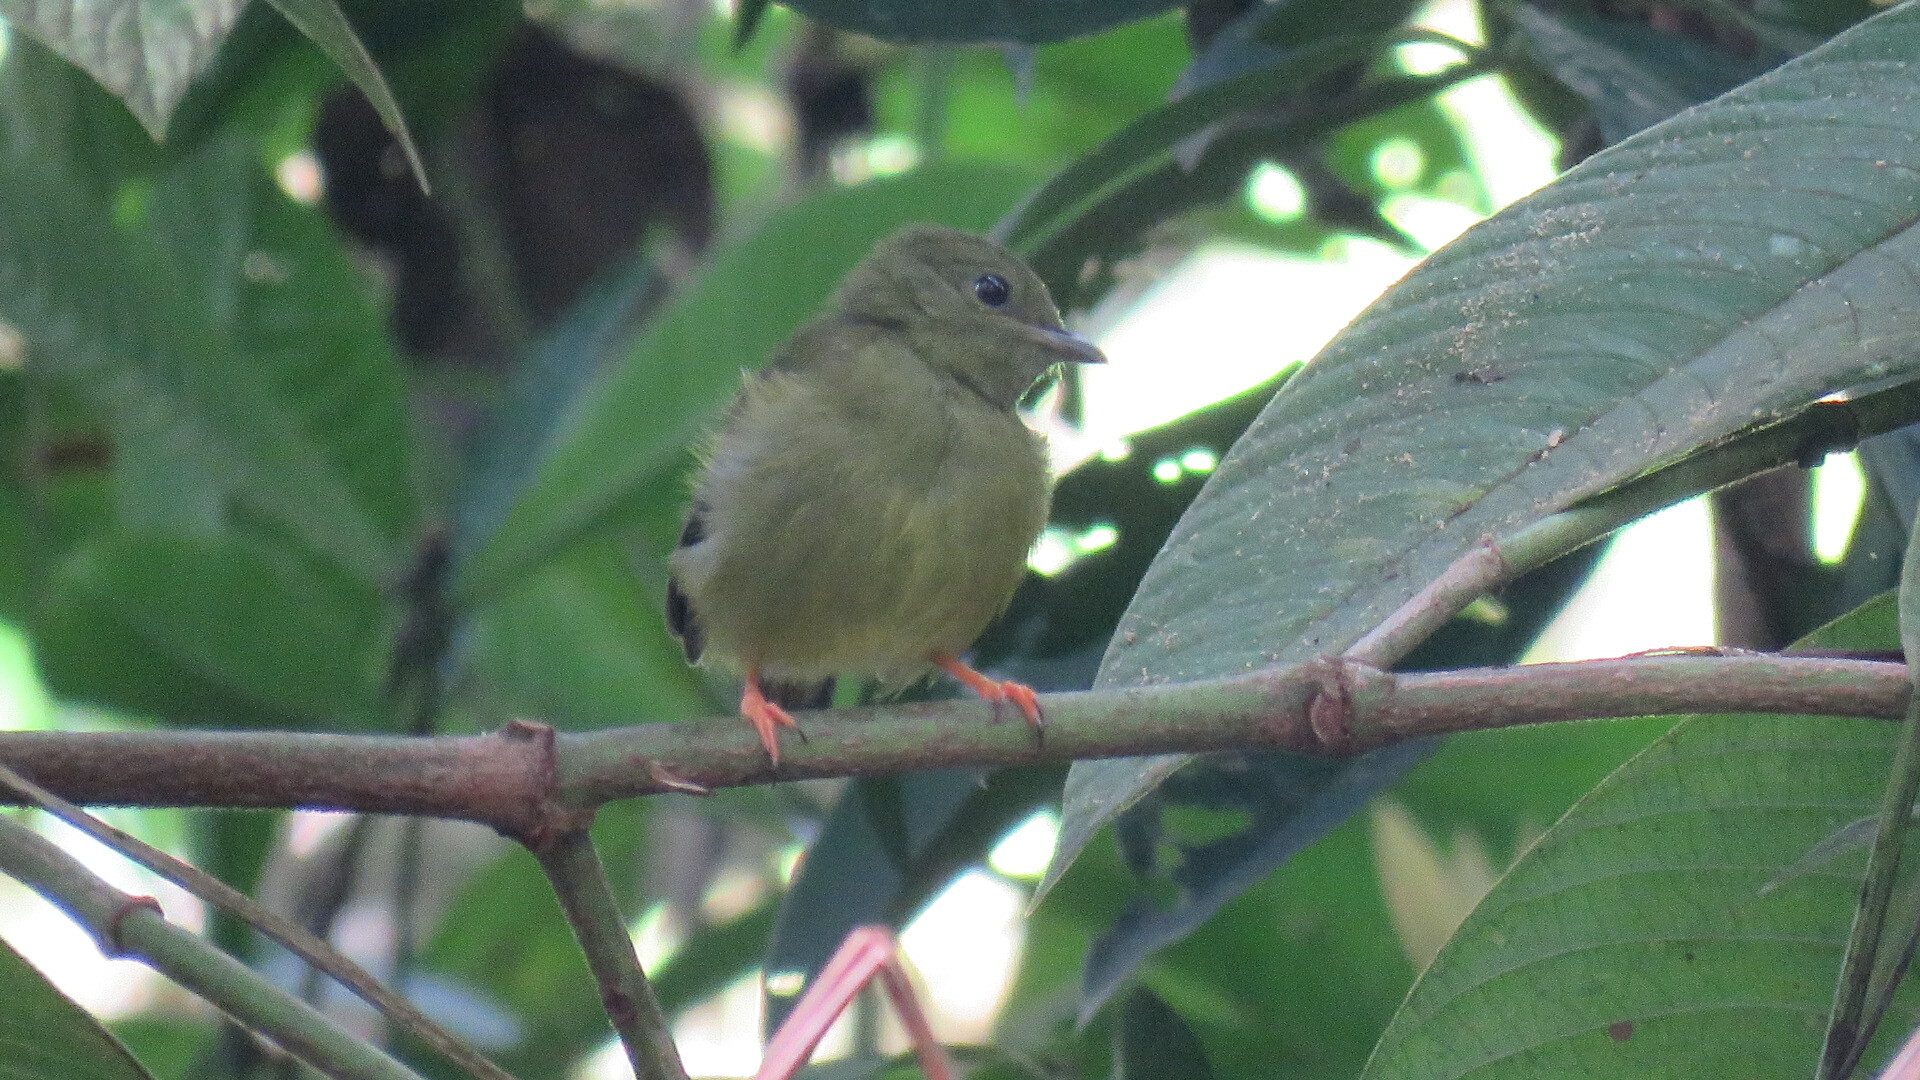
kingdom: Animalia
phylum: Chordata
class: Aves
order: Passeriformes
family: Pipridae
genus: Manacus
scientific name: Manacus candei
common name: White-collared manakin
